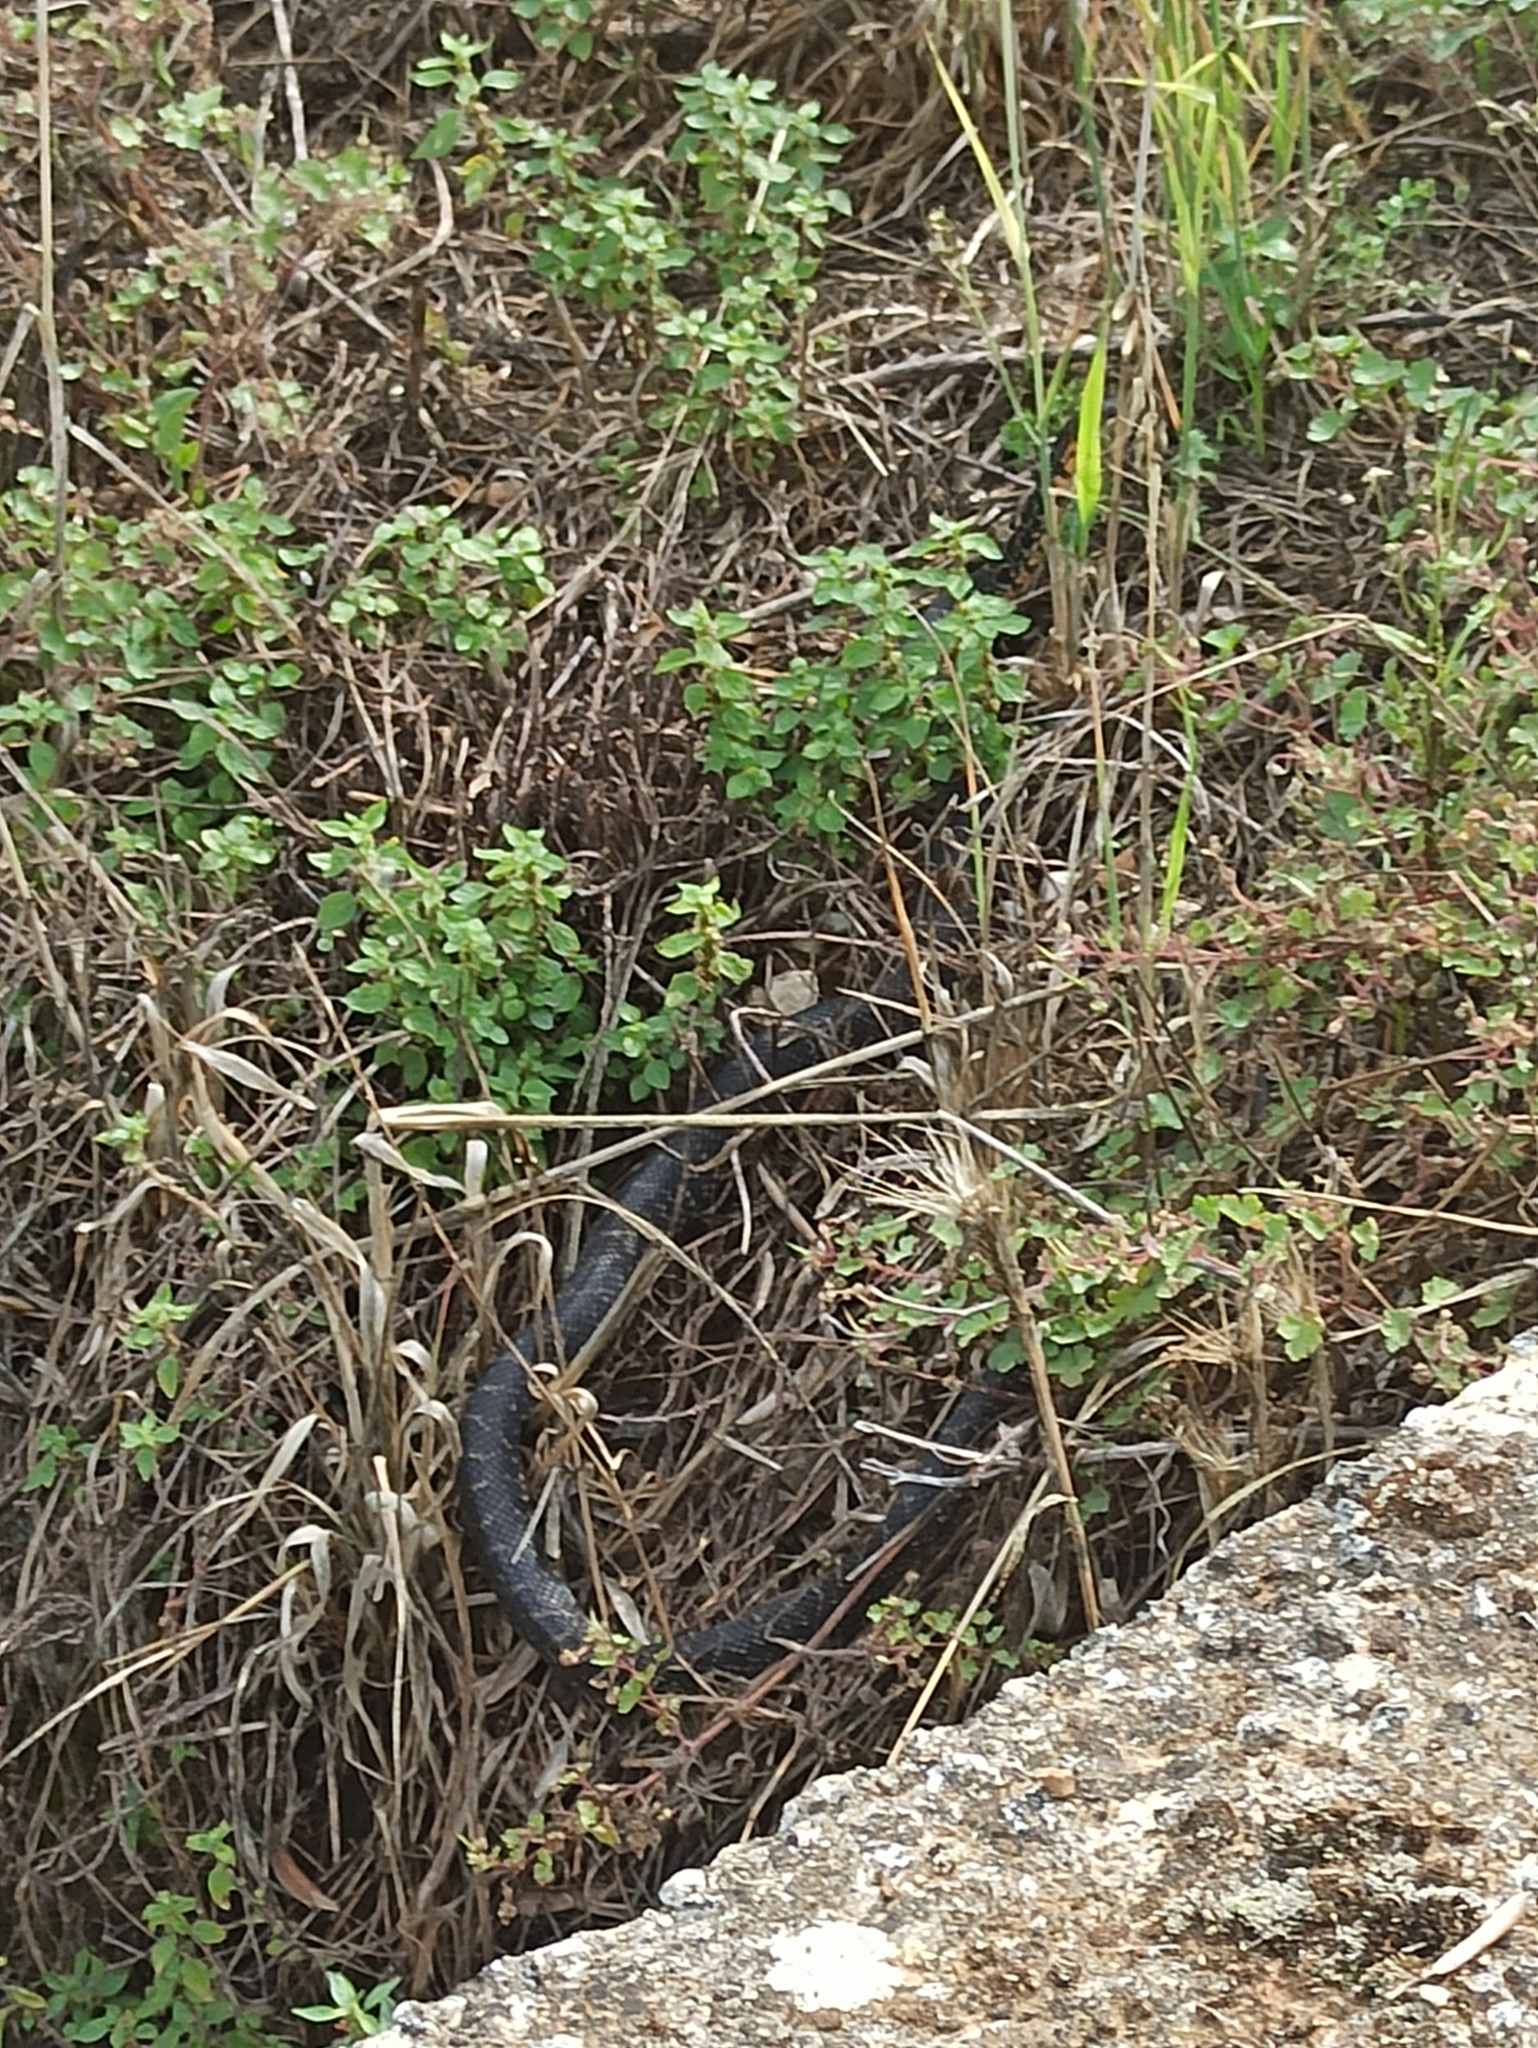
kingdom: Animalia
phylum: Chordata
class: Squamata
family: Psammophiidae
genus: Malpolon
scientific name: Malpolon monspessulanus
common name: Montpellier snake
